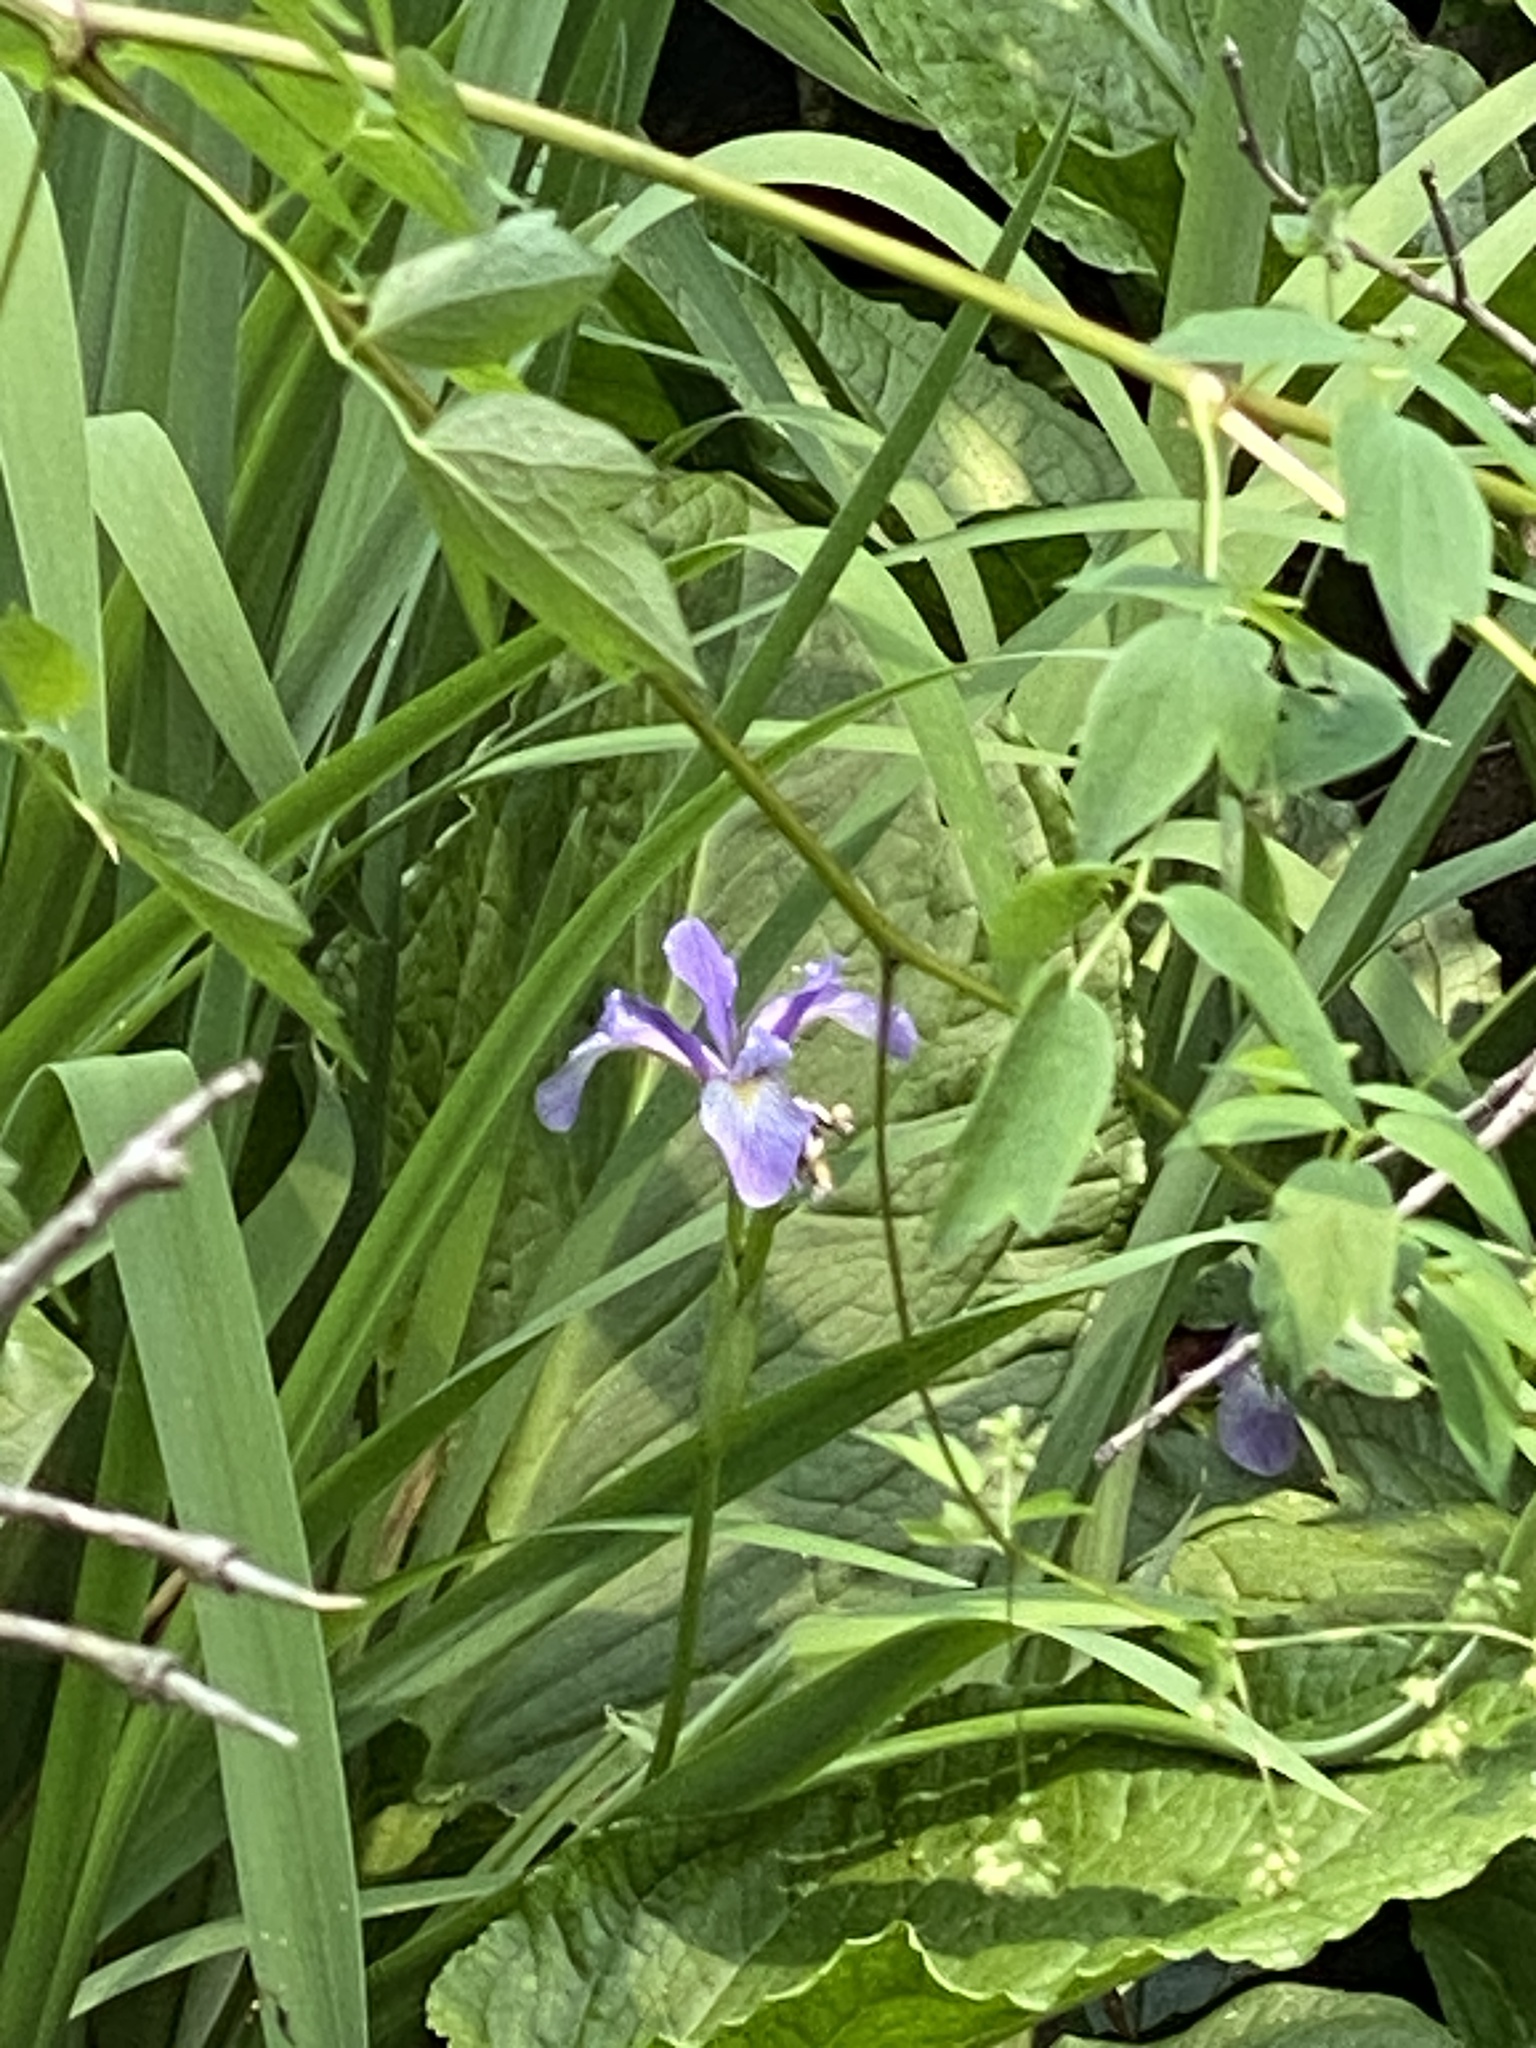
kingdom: Plantae
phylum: Tracheophyta
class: Liliopsida
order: Asparagales
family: Iridaceae
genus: Iris
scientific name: Iris virginica
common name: Southern blue flag
